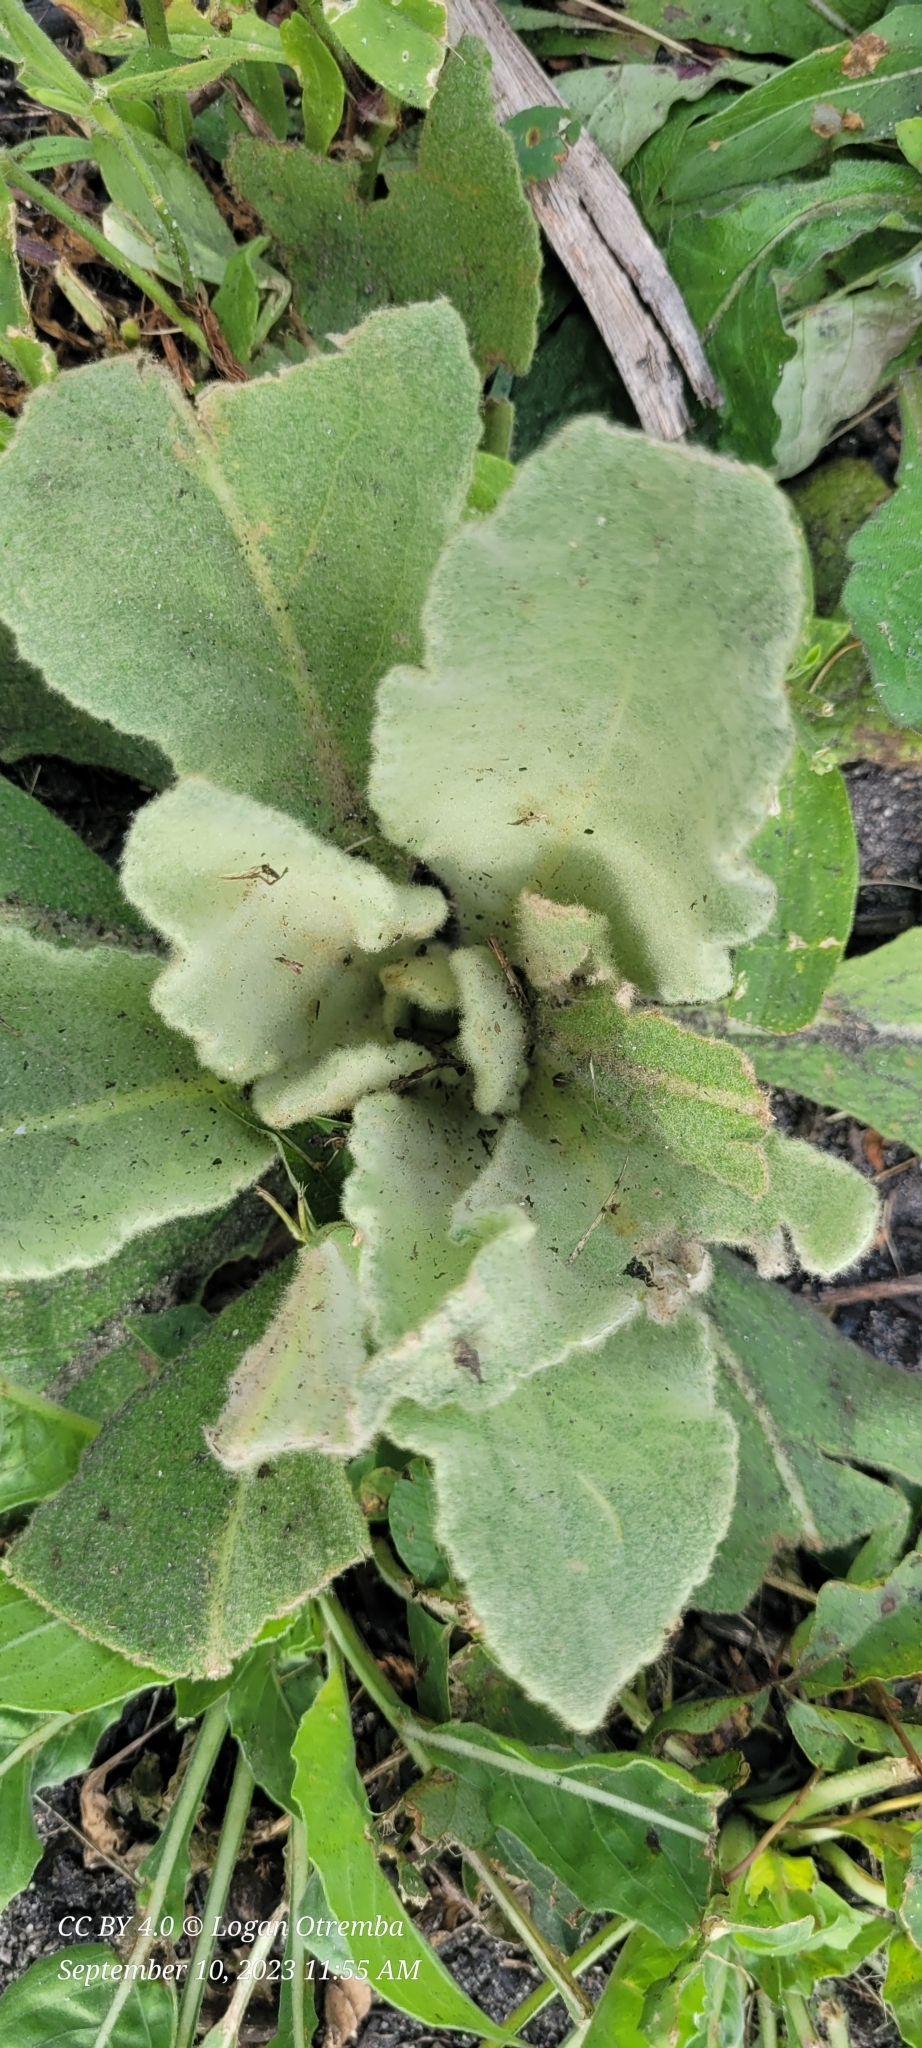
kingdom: Plantae
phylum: Tracheophyta
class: Magnoliopsida
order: Lamiales
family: Scrophulariaceae
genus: Verbascum
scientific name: Verbascum thapsus
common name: Common mullein
